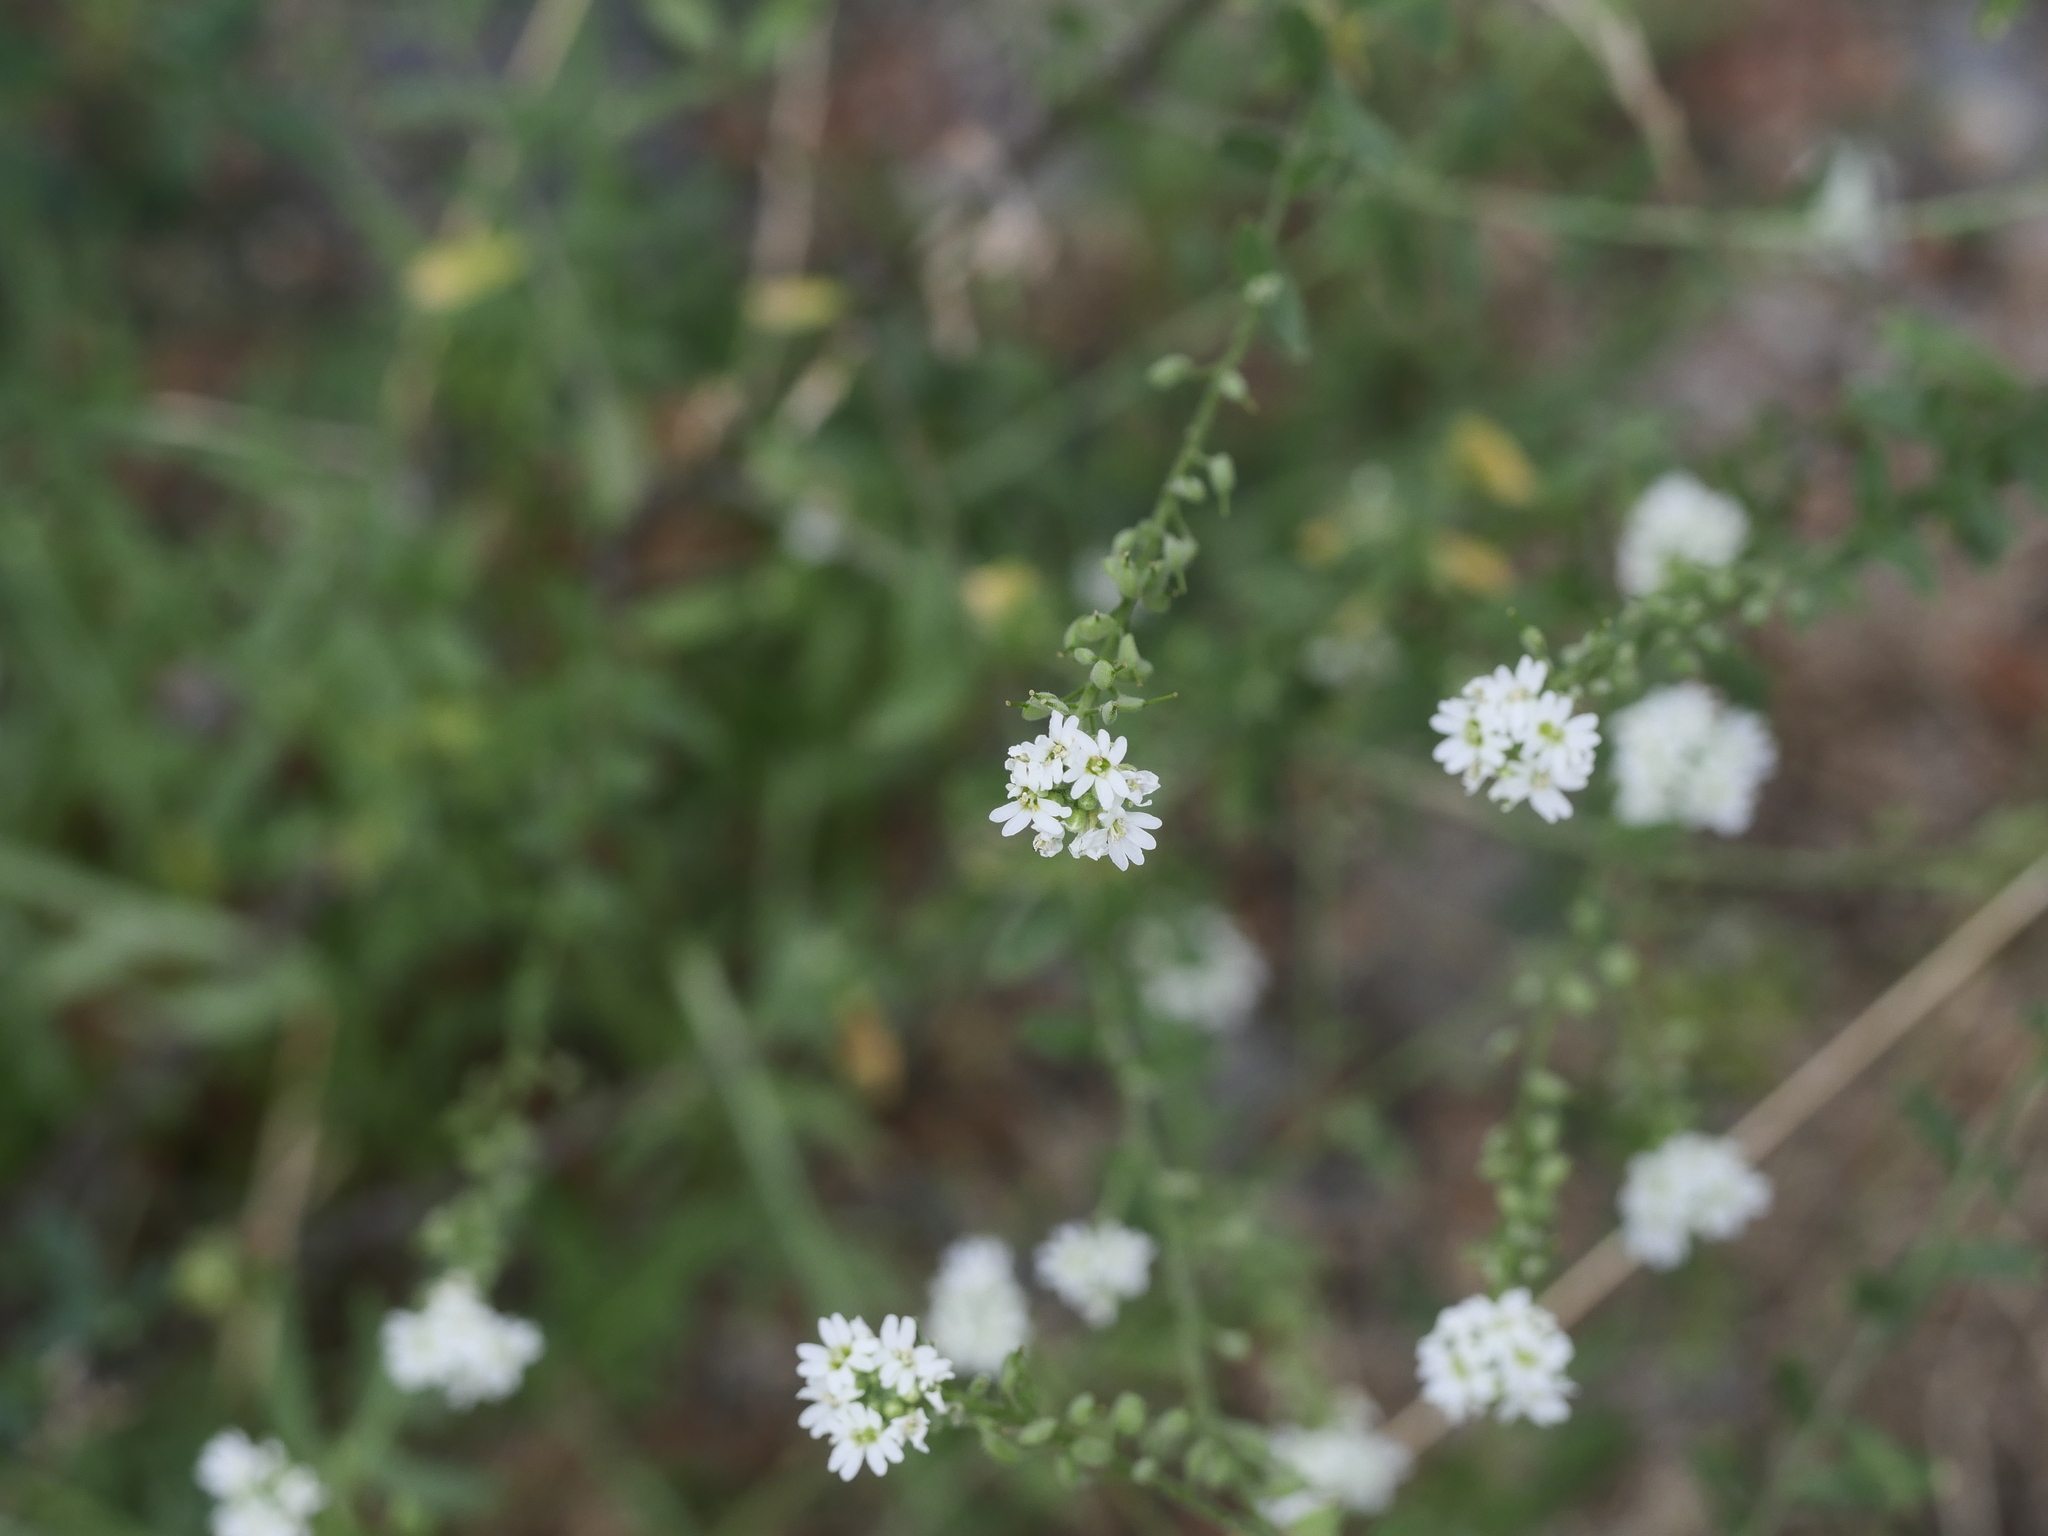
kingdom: Plantae
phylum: Tracheophyta
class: Magnoliopsida
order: Brassicales
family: Brassicaceae
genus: Berteroa
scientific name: Berteroa incana
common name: Hoary alison
